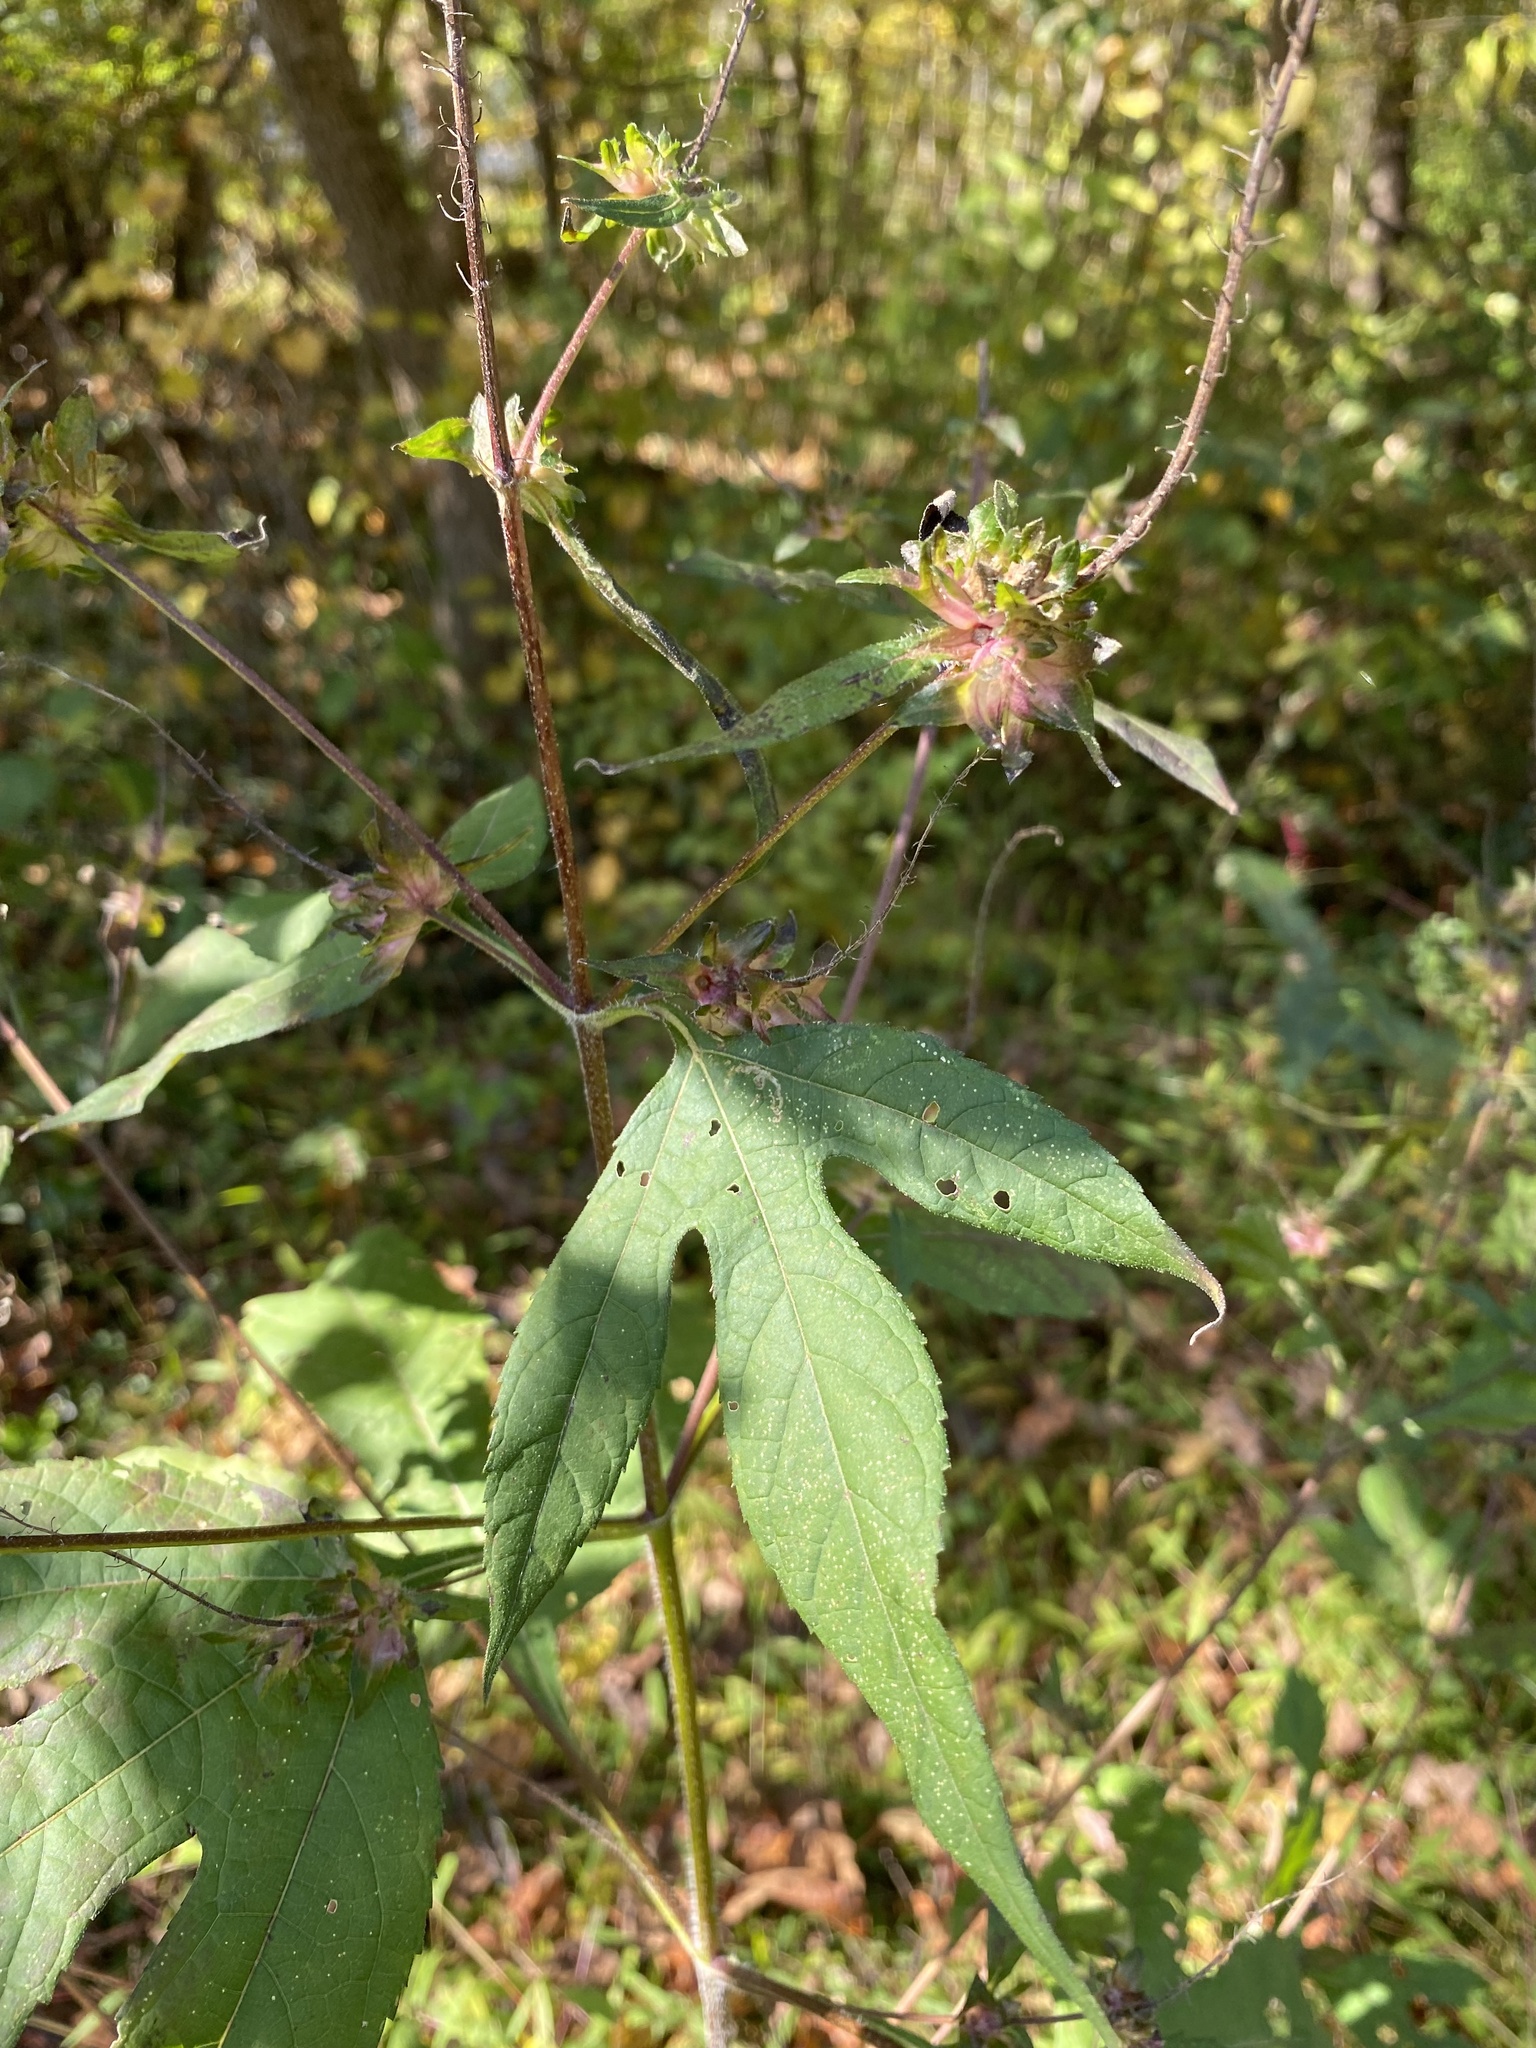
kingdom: Plantae
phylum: Tracheophyta
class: Magnoliopsida
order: Asterales
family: Asteraceae
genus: Ambrosia
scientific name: Ambrosia trifida
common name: Giant ragweed
